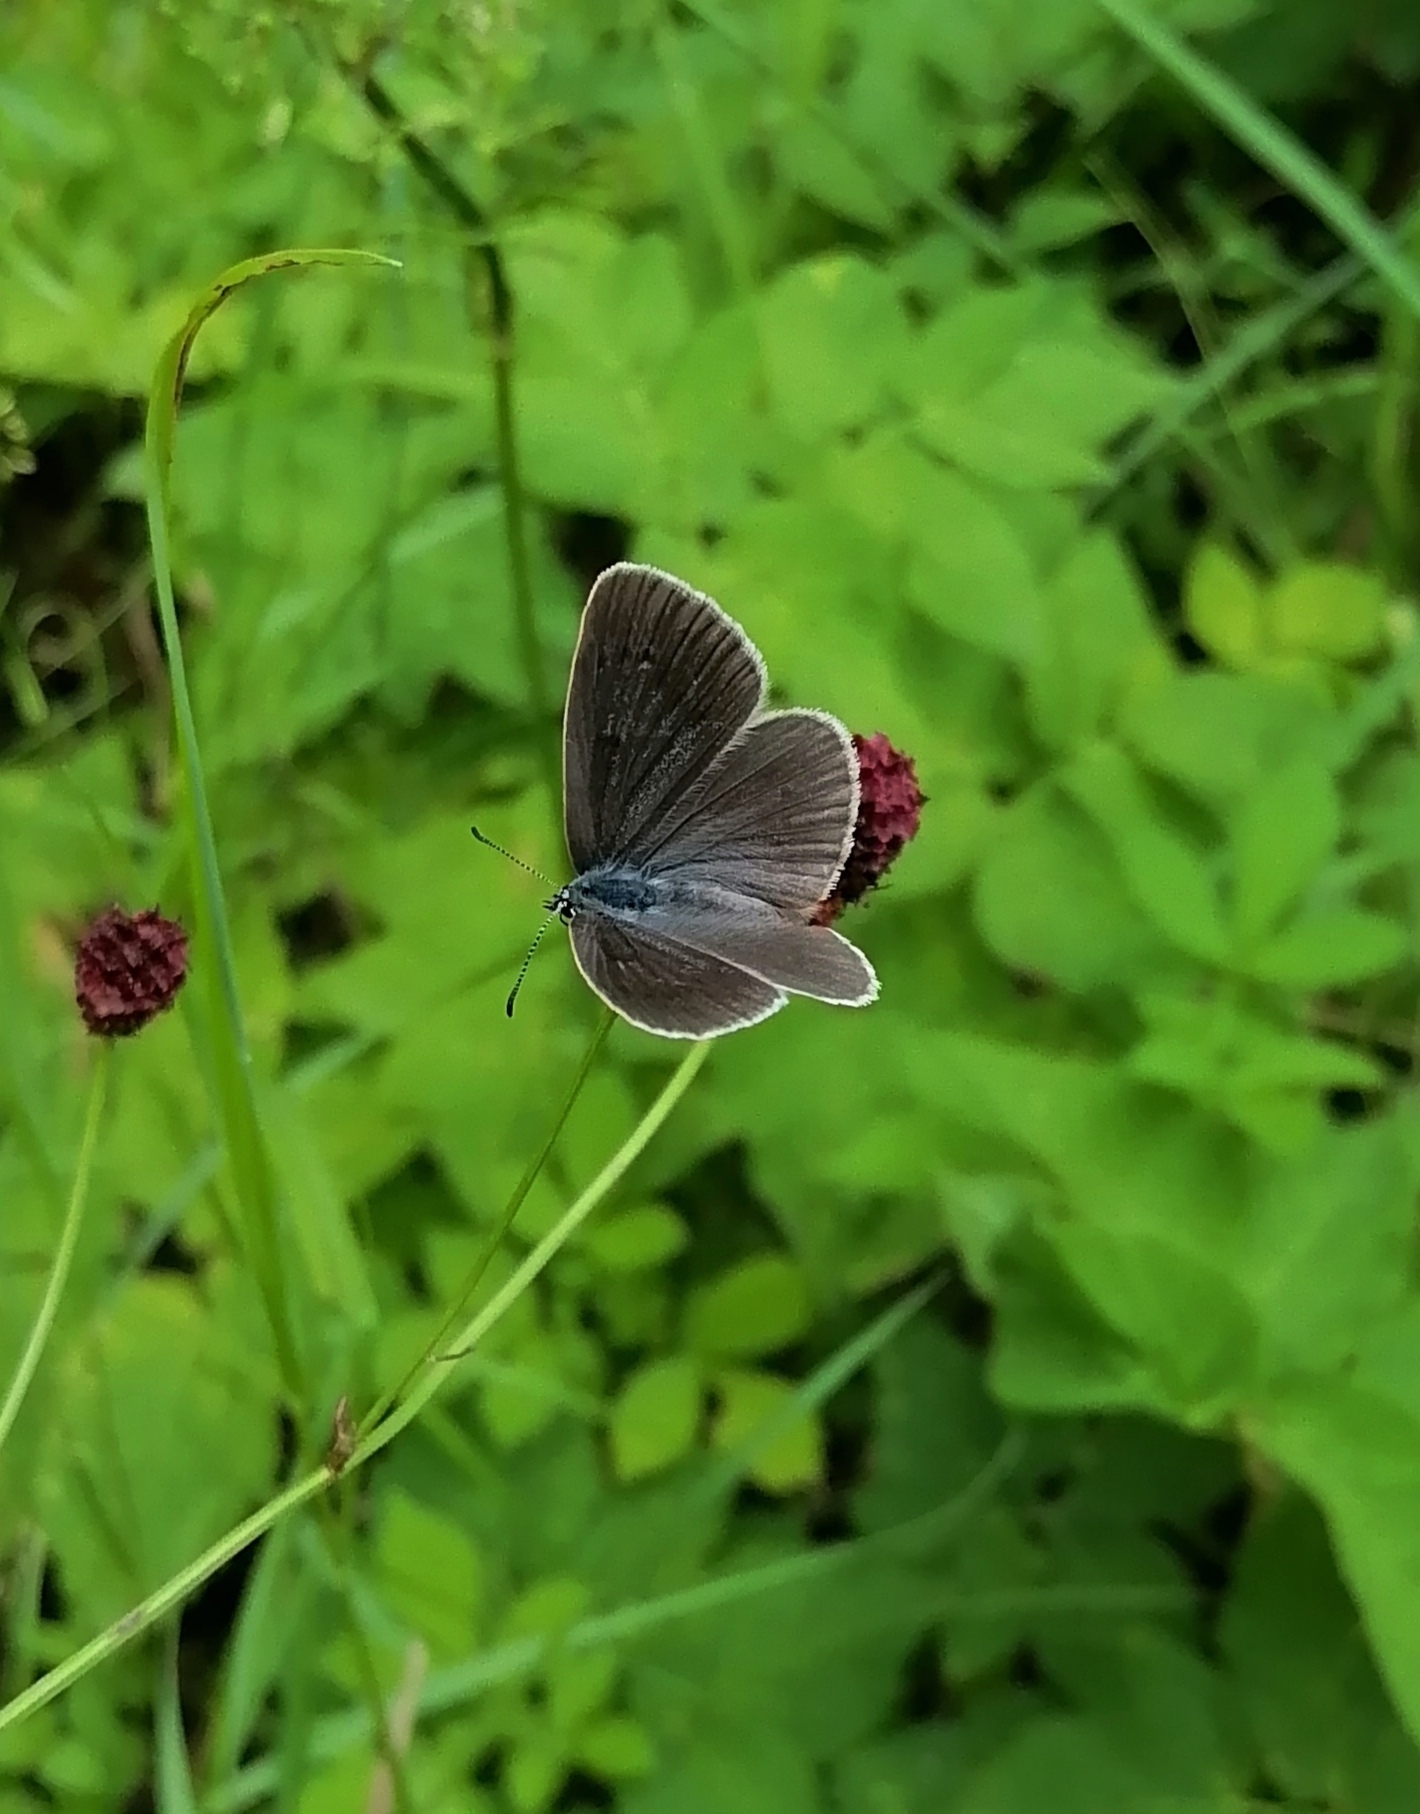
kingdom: Animalia
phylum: Arthropoda
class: Insecta
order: Lepidoptera
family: Lycaenidae
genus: Phengaris
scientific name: Phengaris teleius
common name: Scarce large blue
